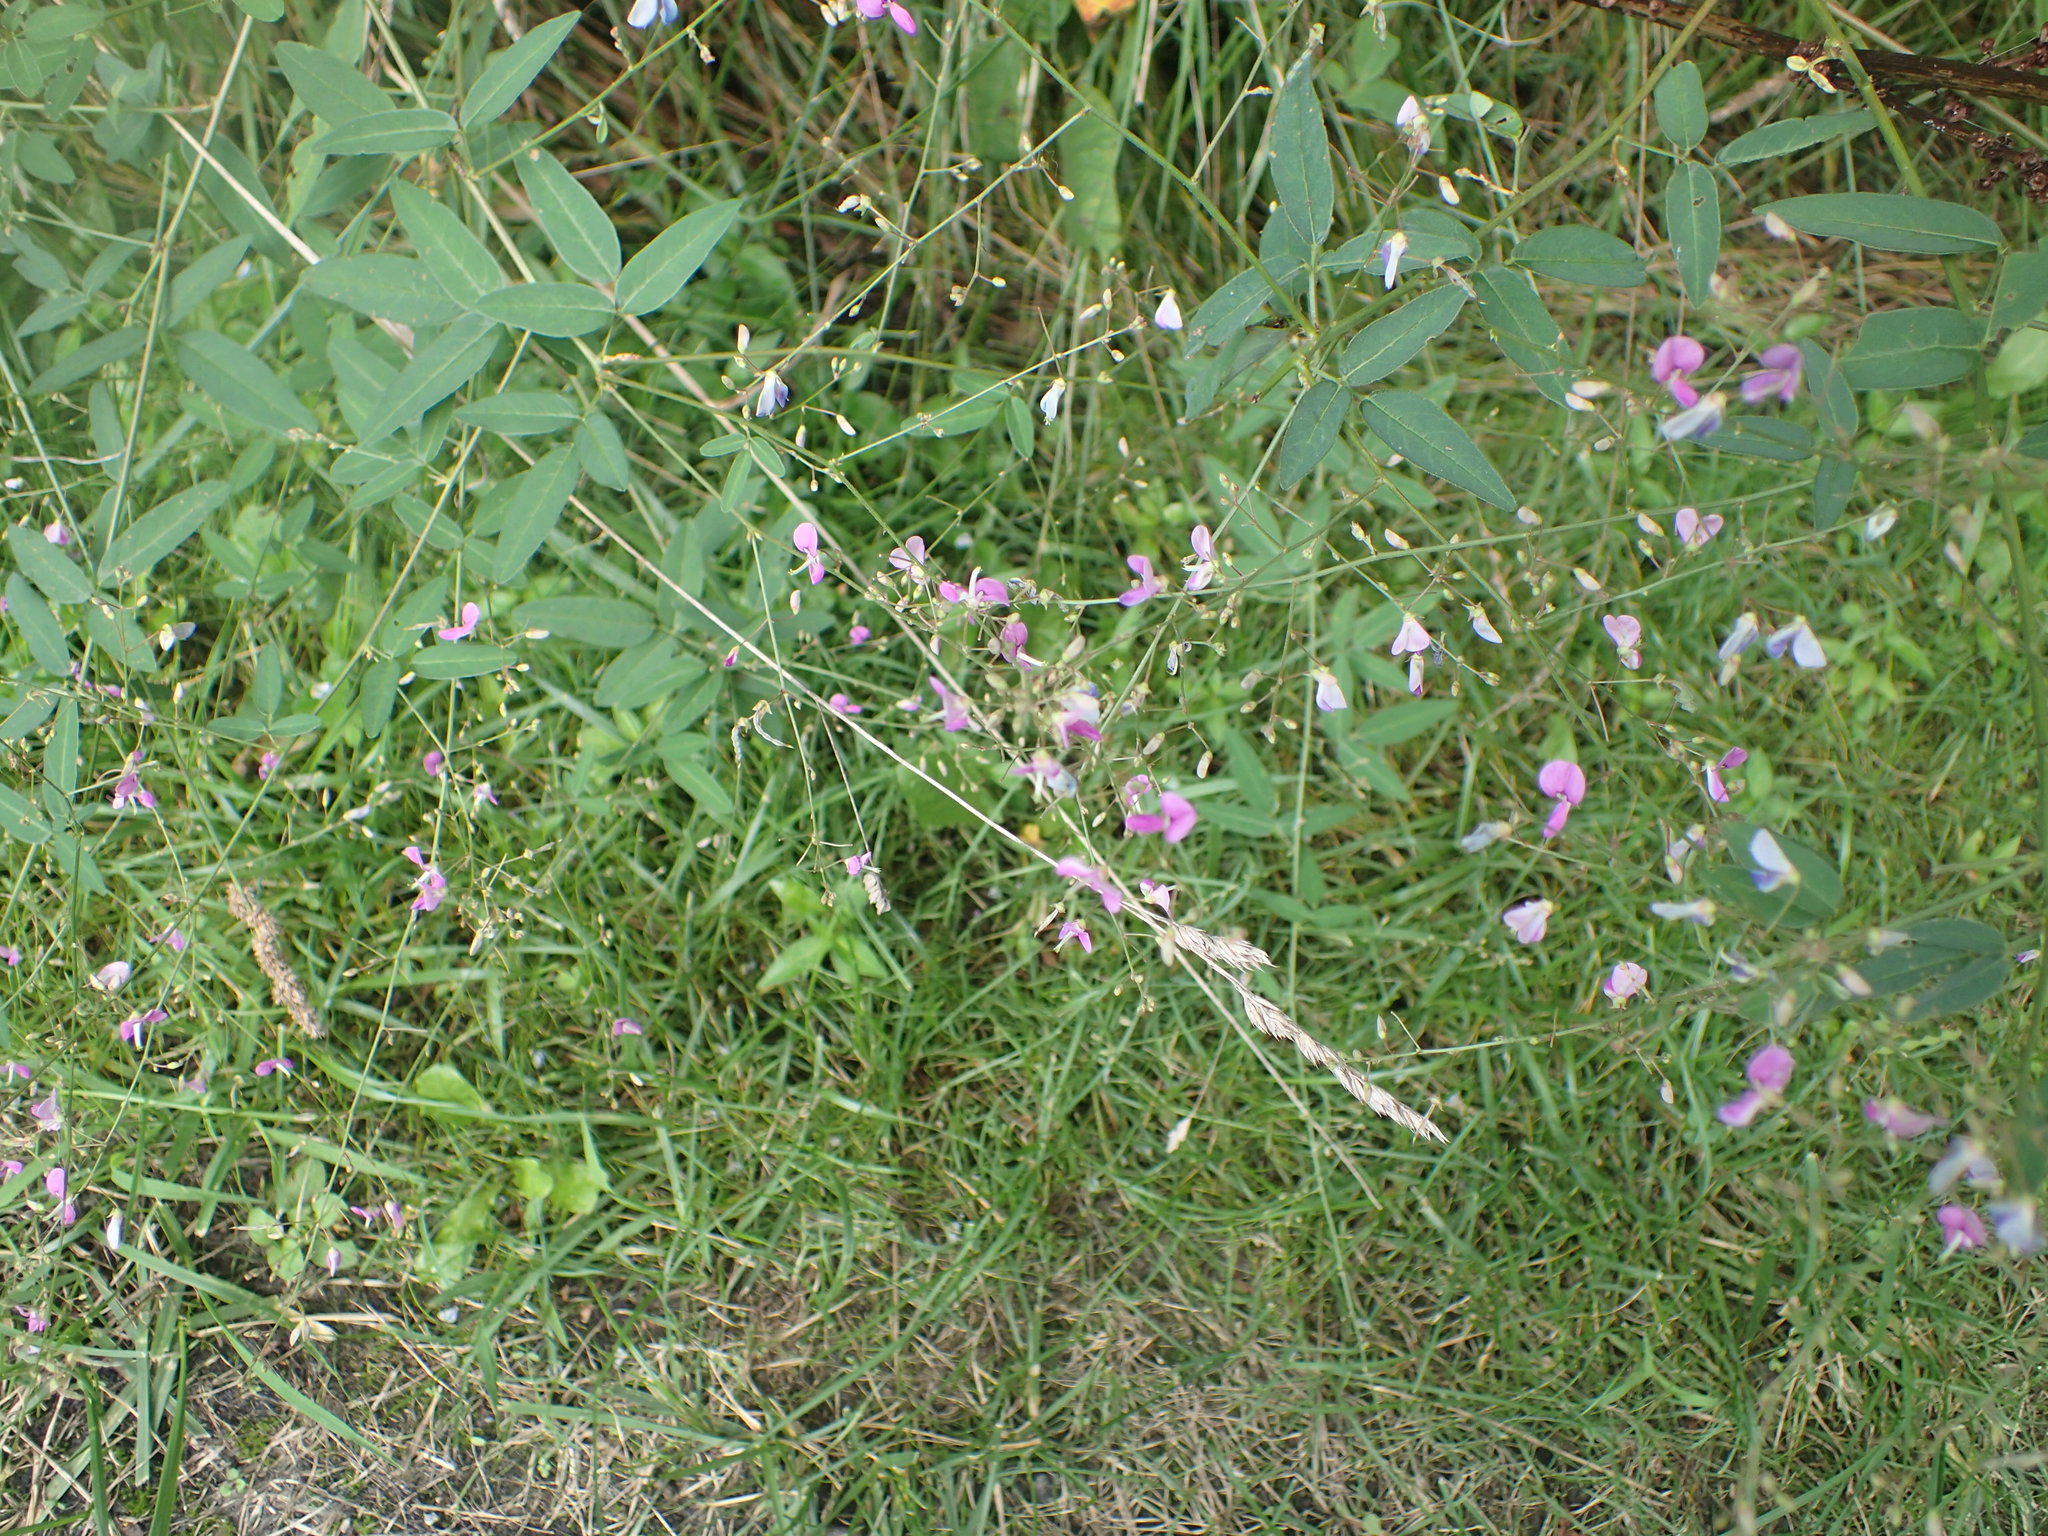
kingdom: Plantae
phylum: Tracheophyta
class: Magnoliopsida
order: Fabales
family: Fabaceae
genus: Desmodium
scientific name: Desmodium paniculatum
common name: Panicled tick-clover
